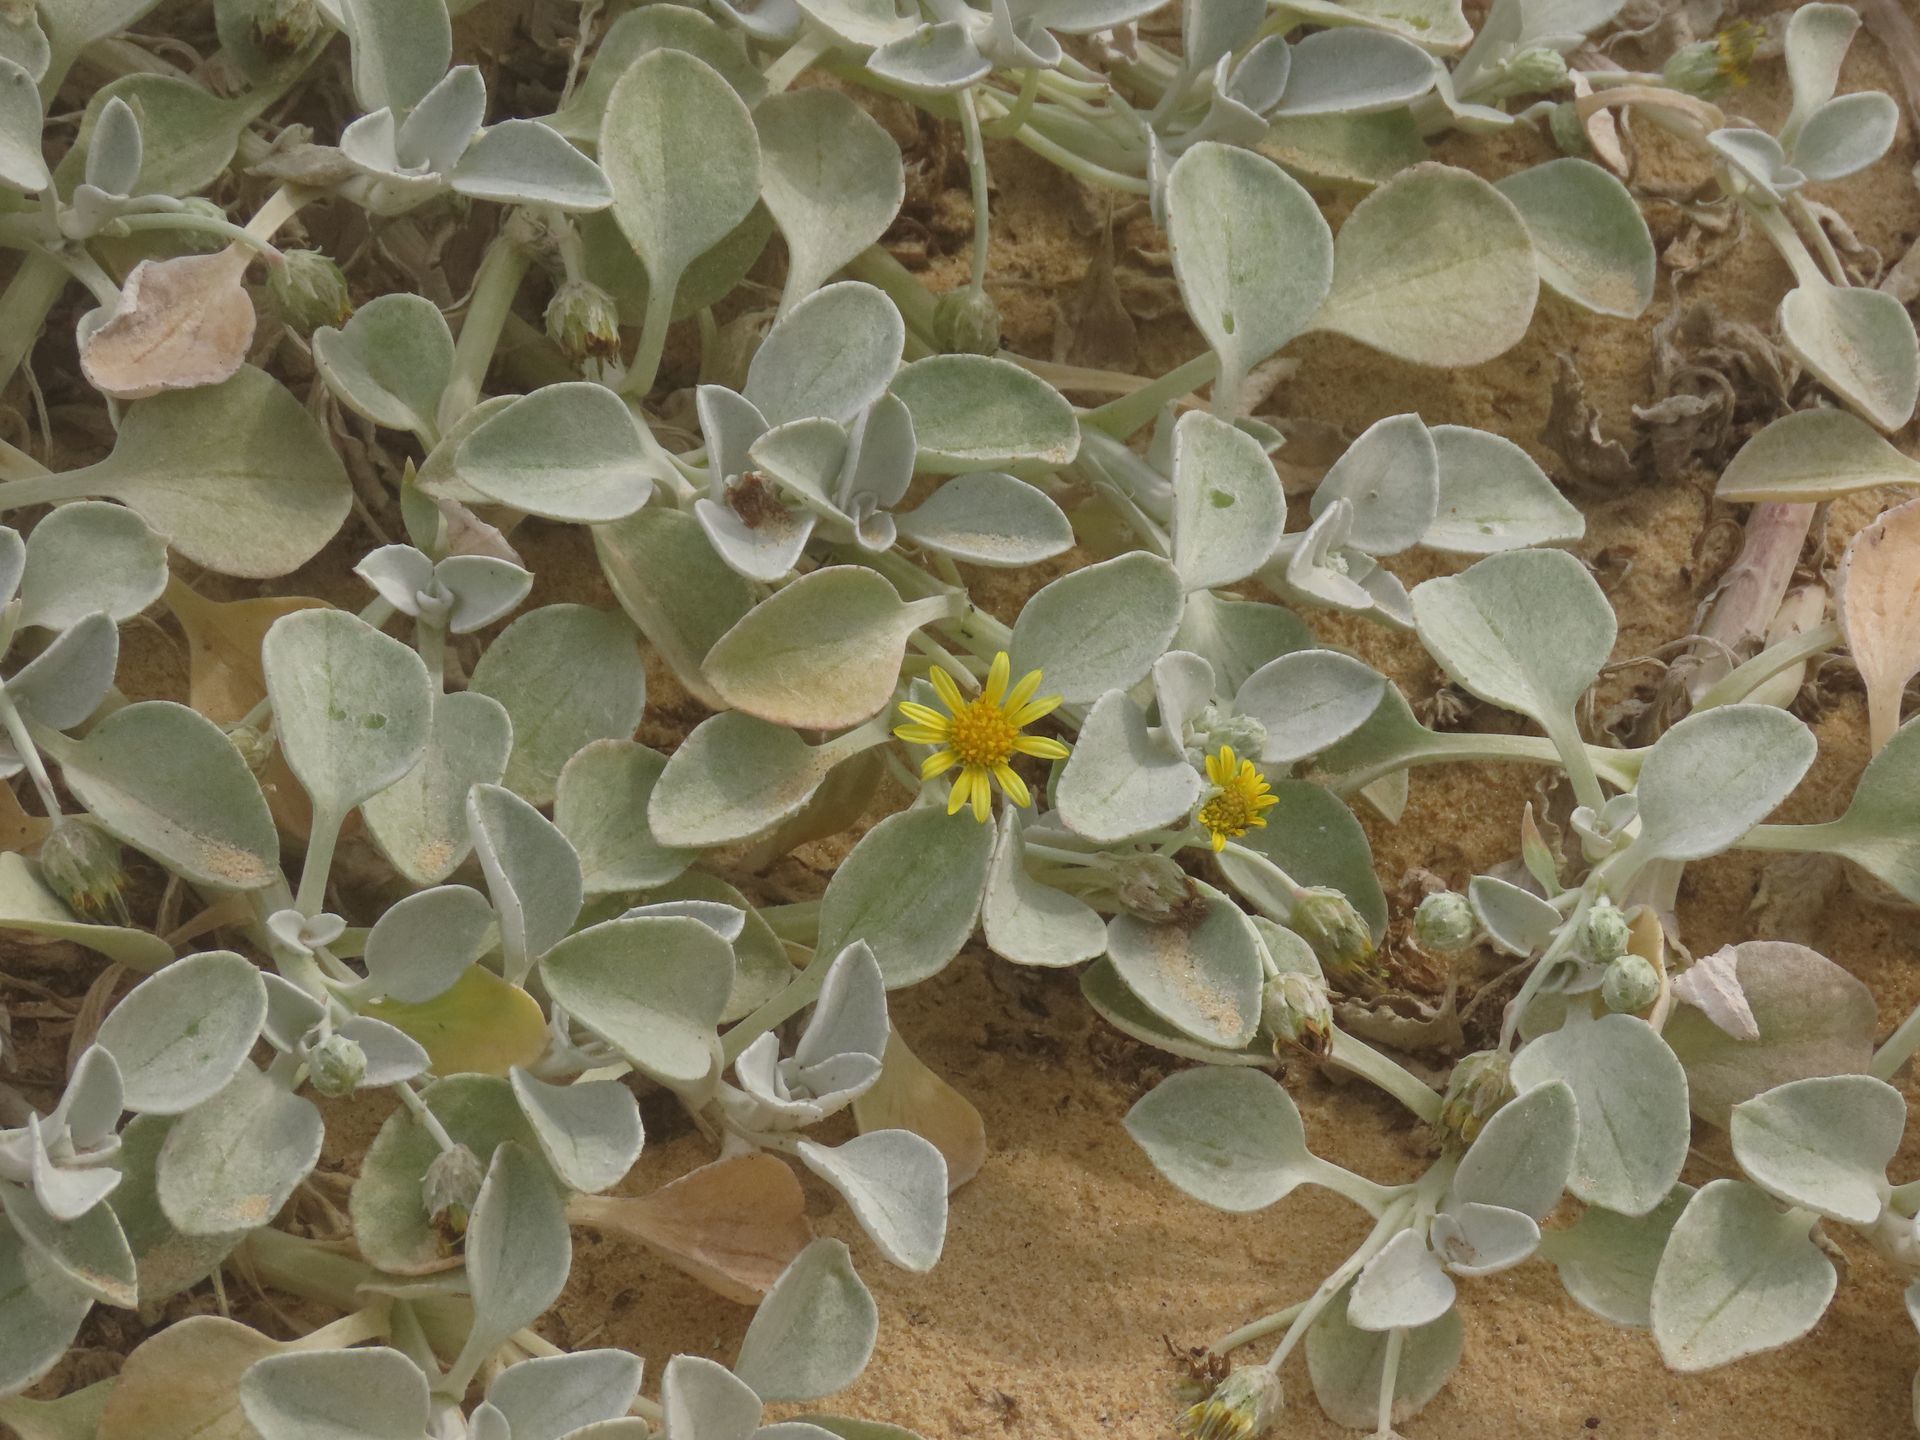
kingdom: Plantae
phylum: Tracheophyta
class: Magnoliopsida
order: Asterales
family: Asteraceae
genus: Arctotheca
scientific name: Arctotheca populifolia
